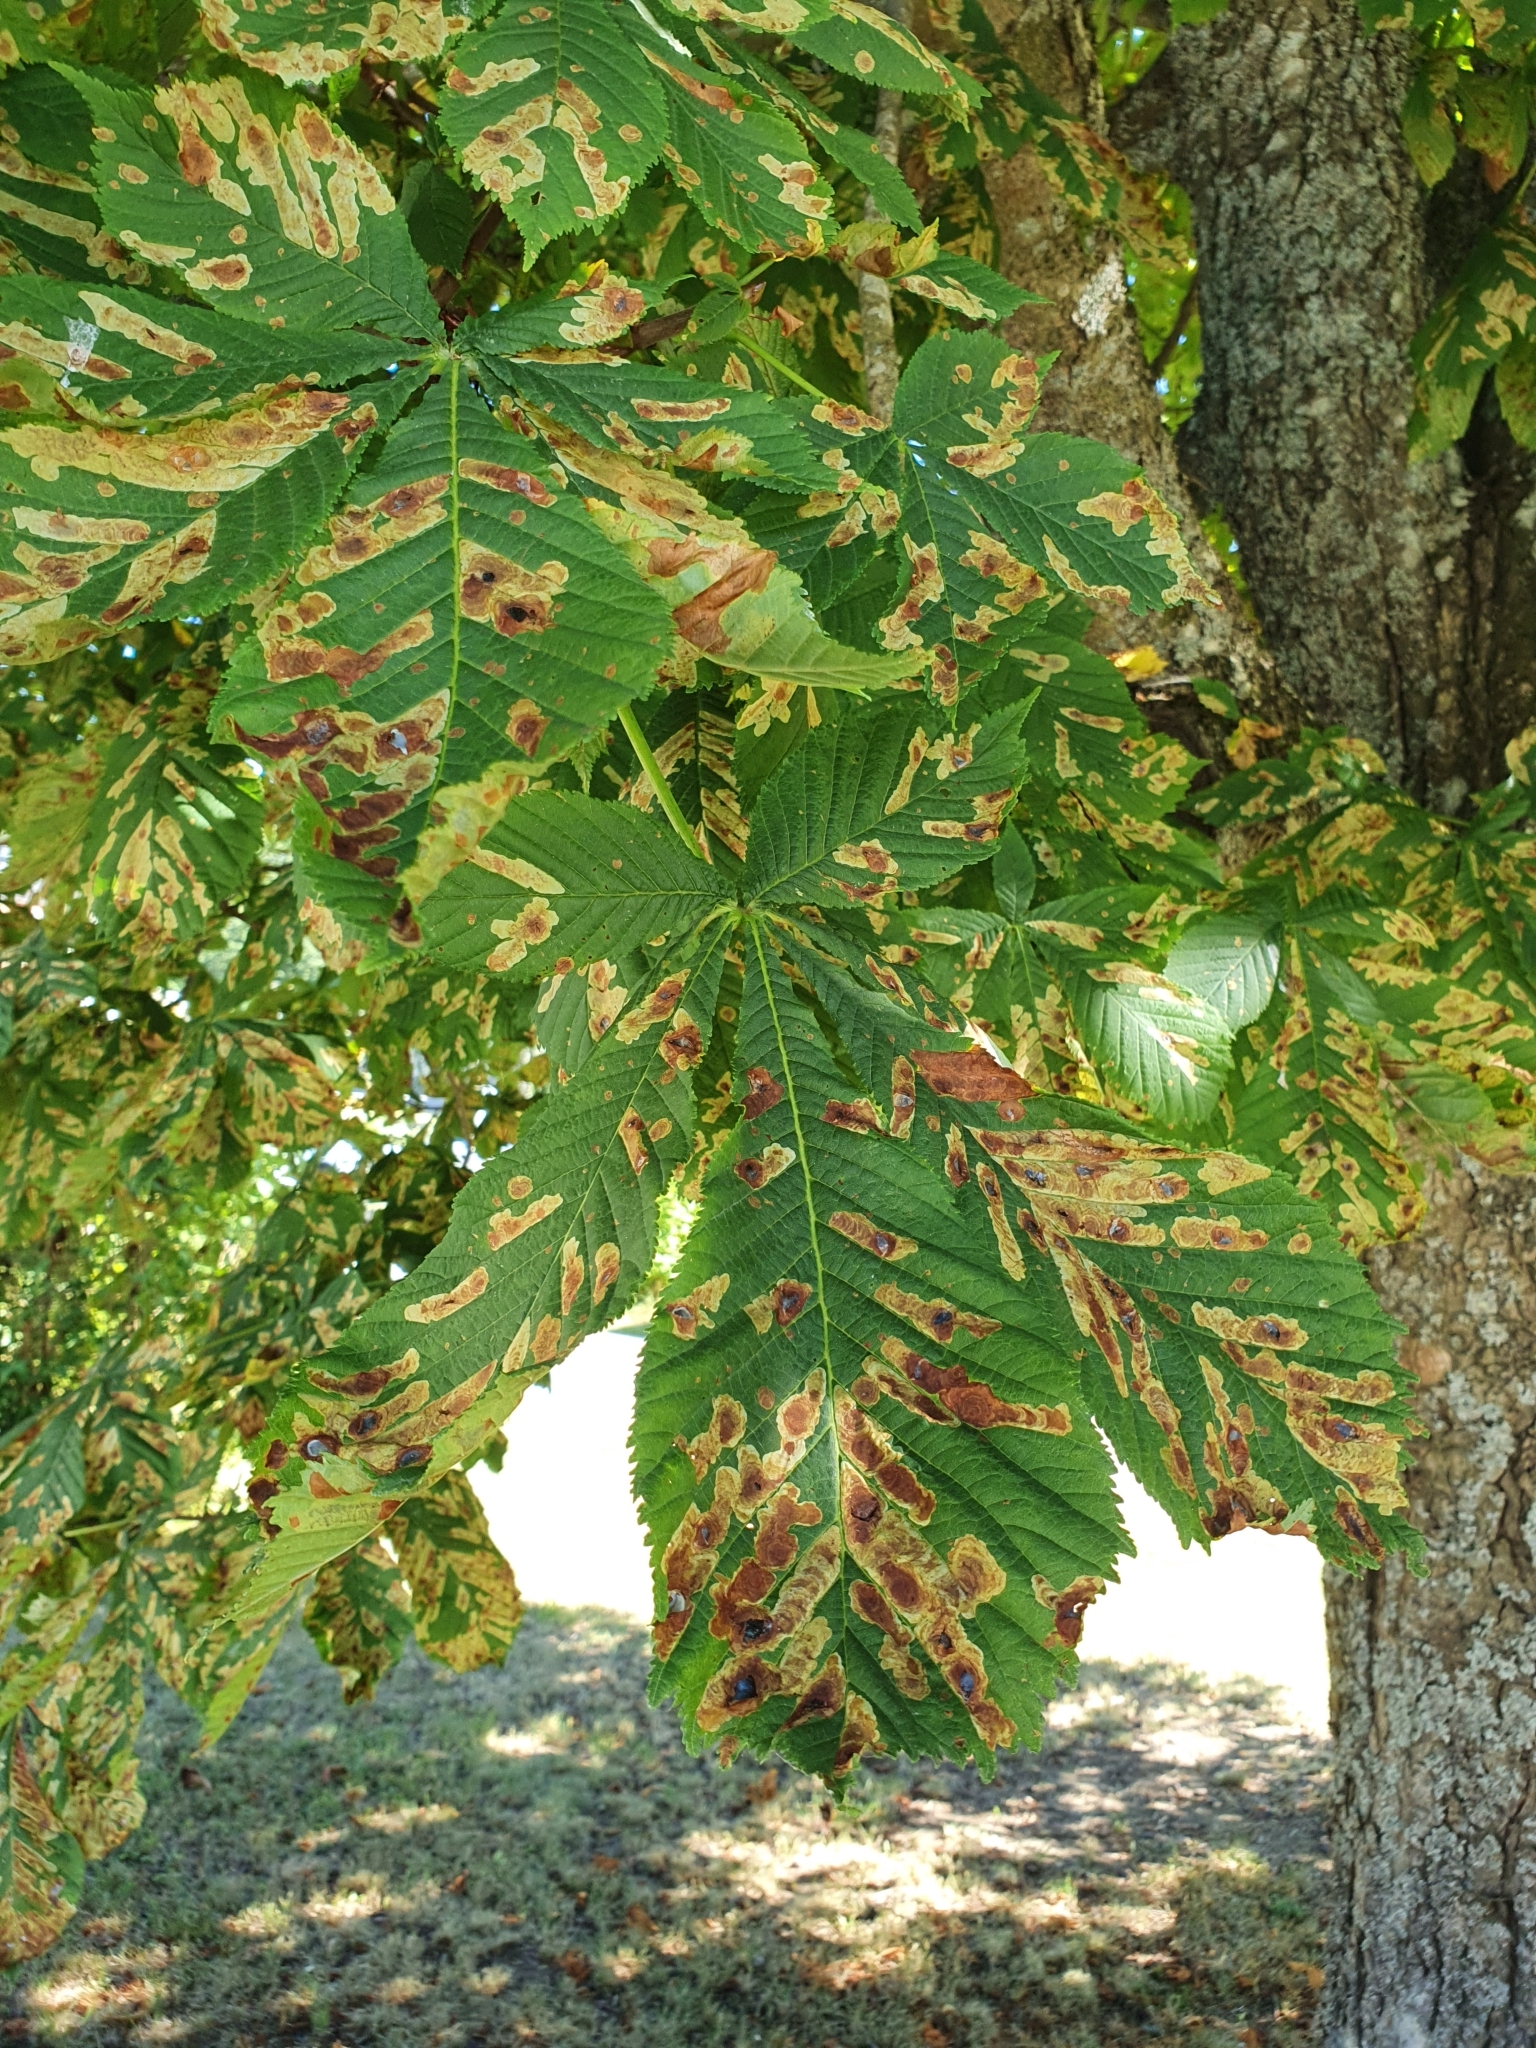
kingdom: Animalia
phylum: Arthropoda
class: Insecta
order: Lepidoptera
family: Gracillariidae
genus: Cameraria
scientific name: Cameraria ohridella
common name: Horse-chestnut leaf-miner
